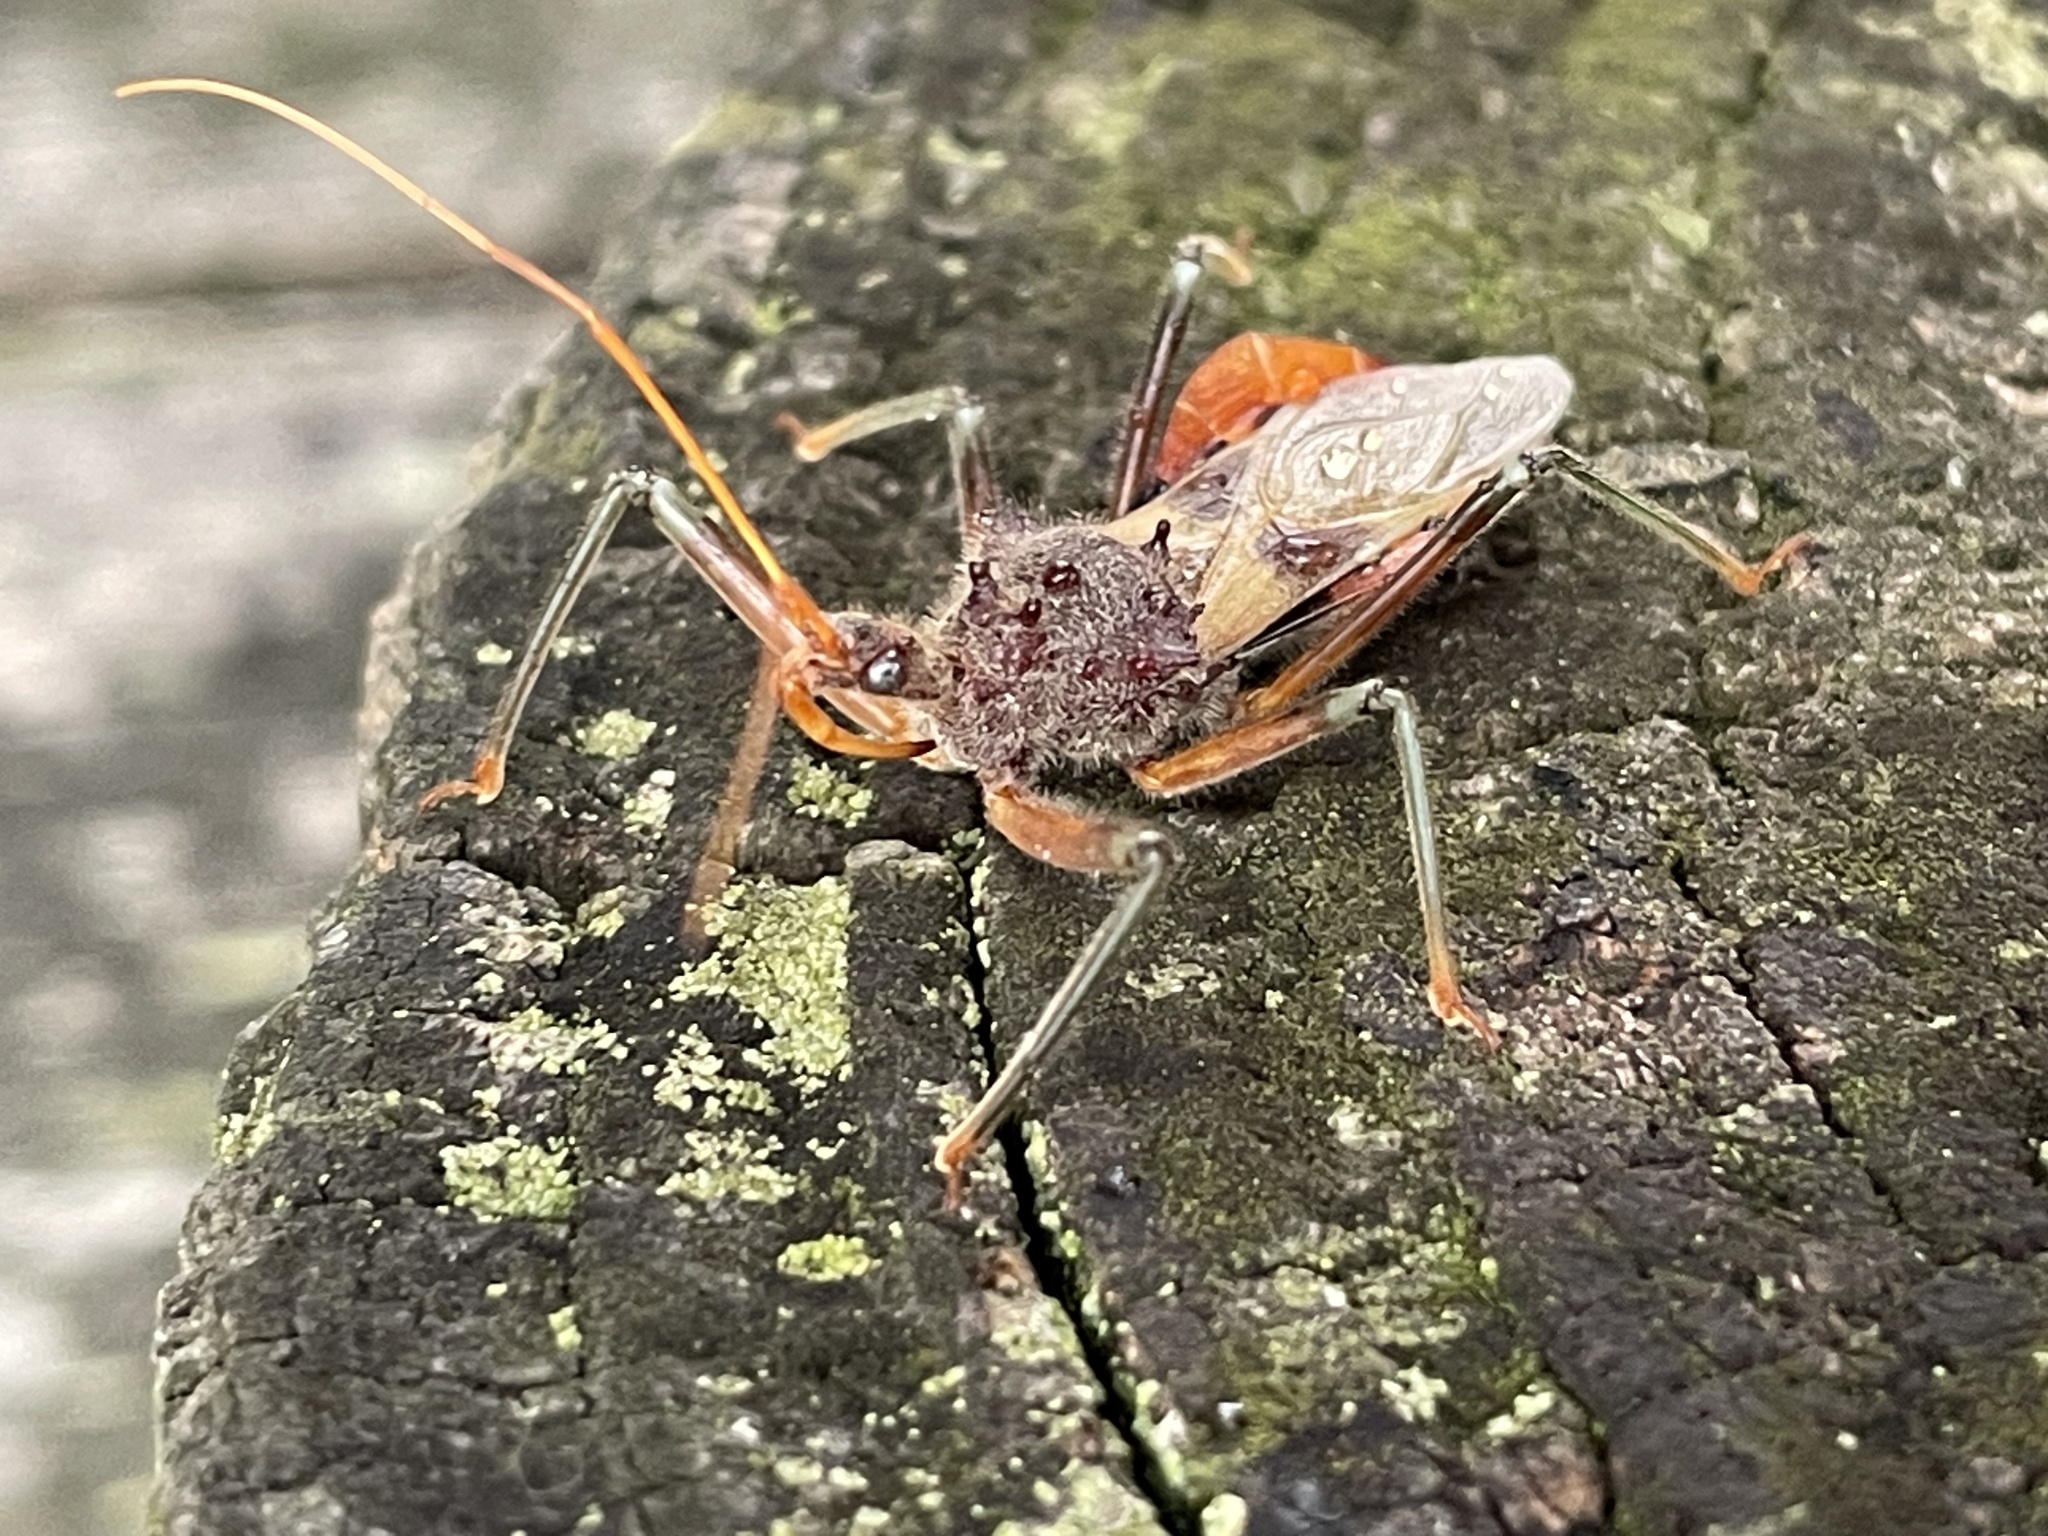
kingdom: Animalia
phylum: Arthropoda
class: Insecta
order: Hemiptera
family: Reduviidae
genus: Pristhesancus
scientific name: Pristhesancus plagipennis
